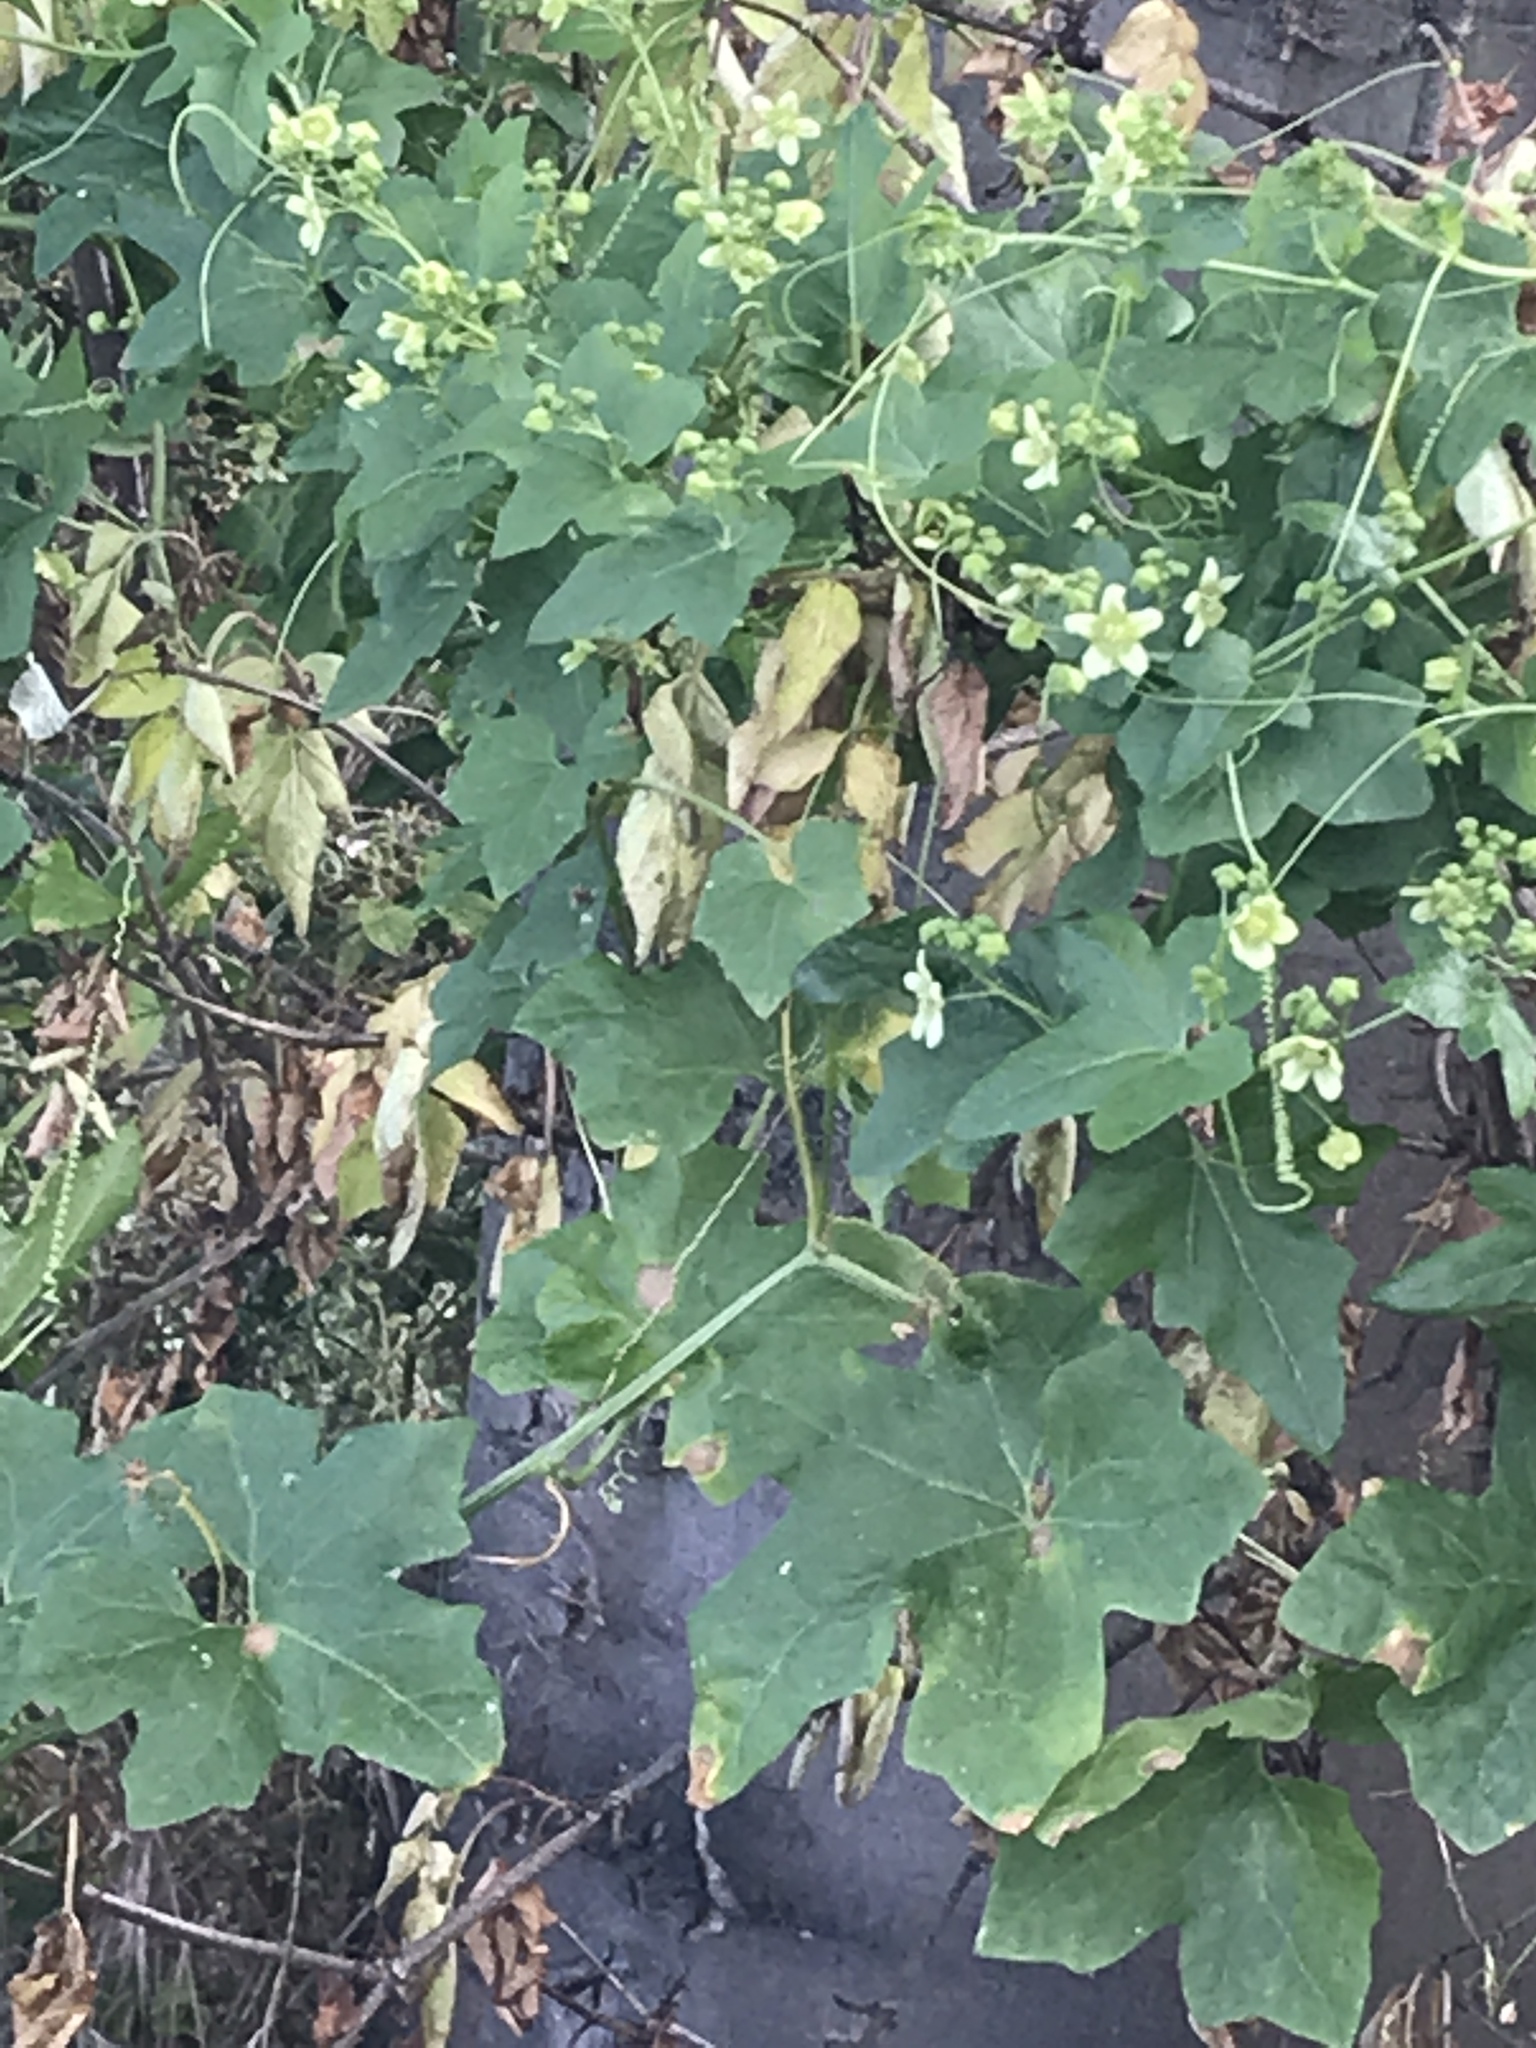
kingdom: Plantae
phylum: Tracheophyta
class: Magnoliopsida
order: Cucurbitales
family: Cucurbitaceae
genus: Bryonia
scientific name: Bryonia dioica
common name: White bryony
